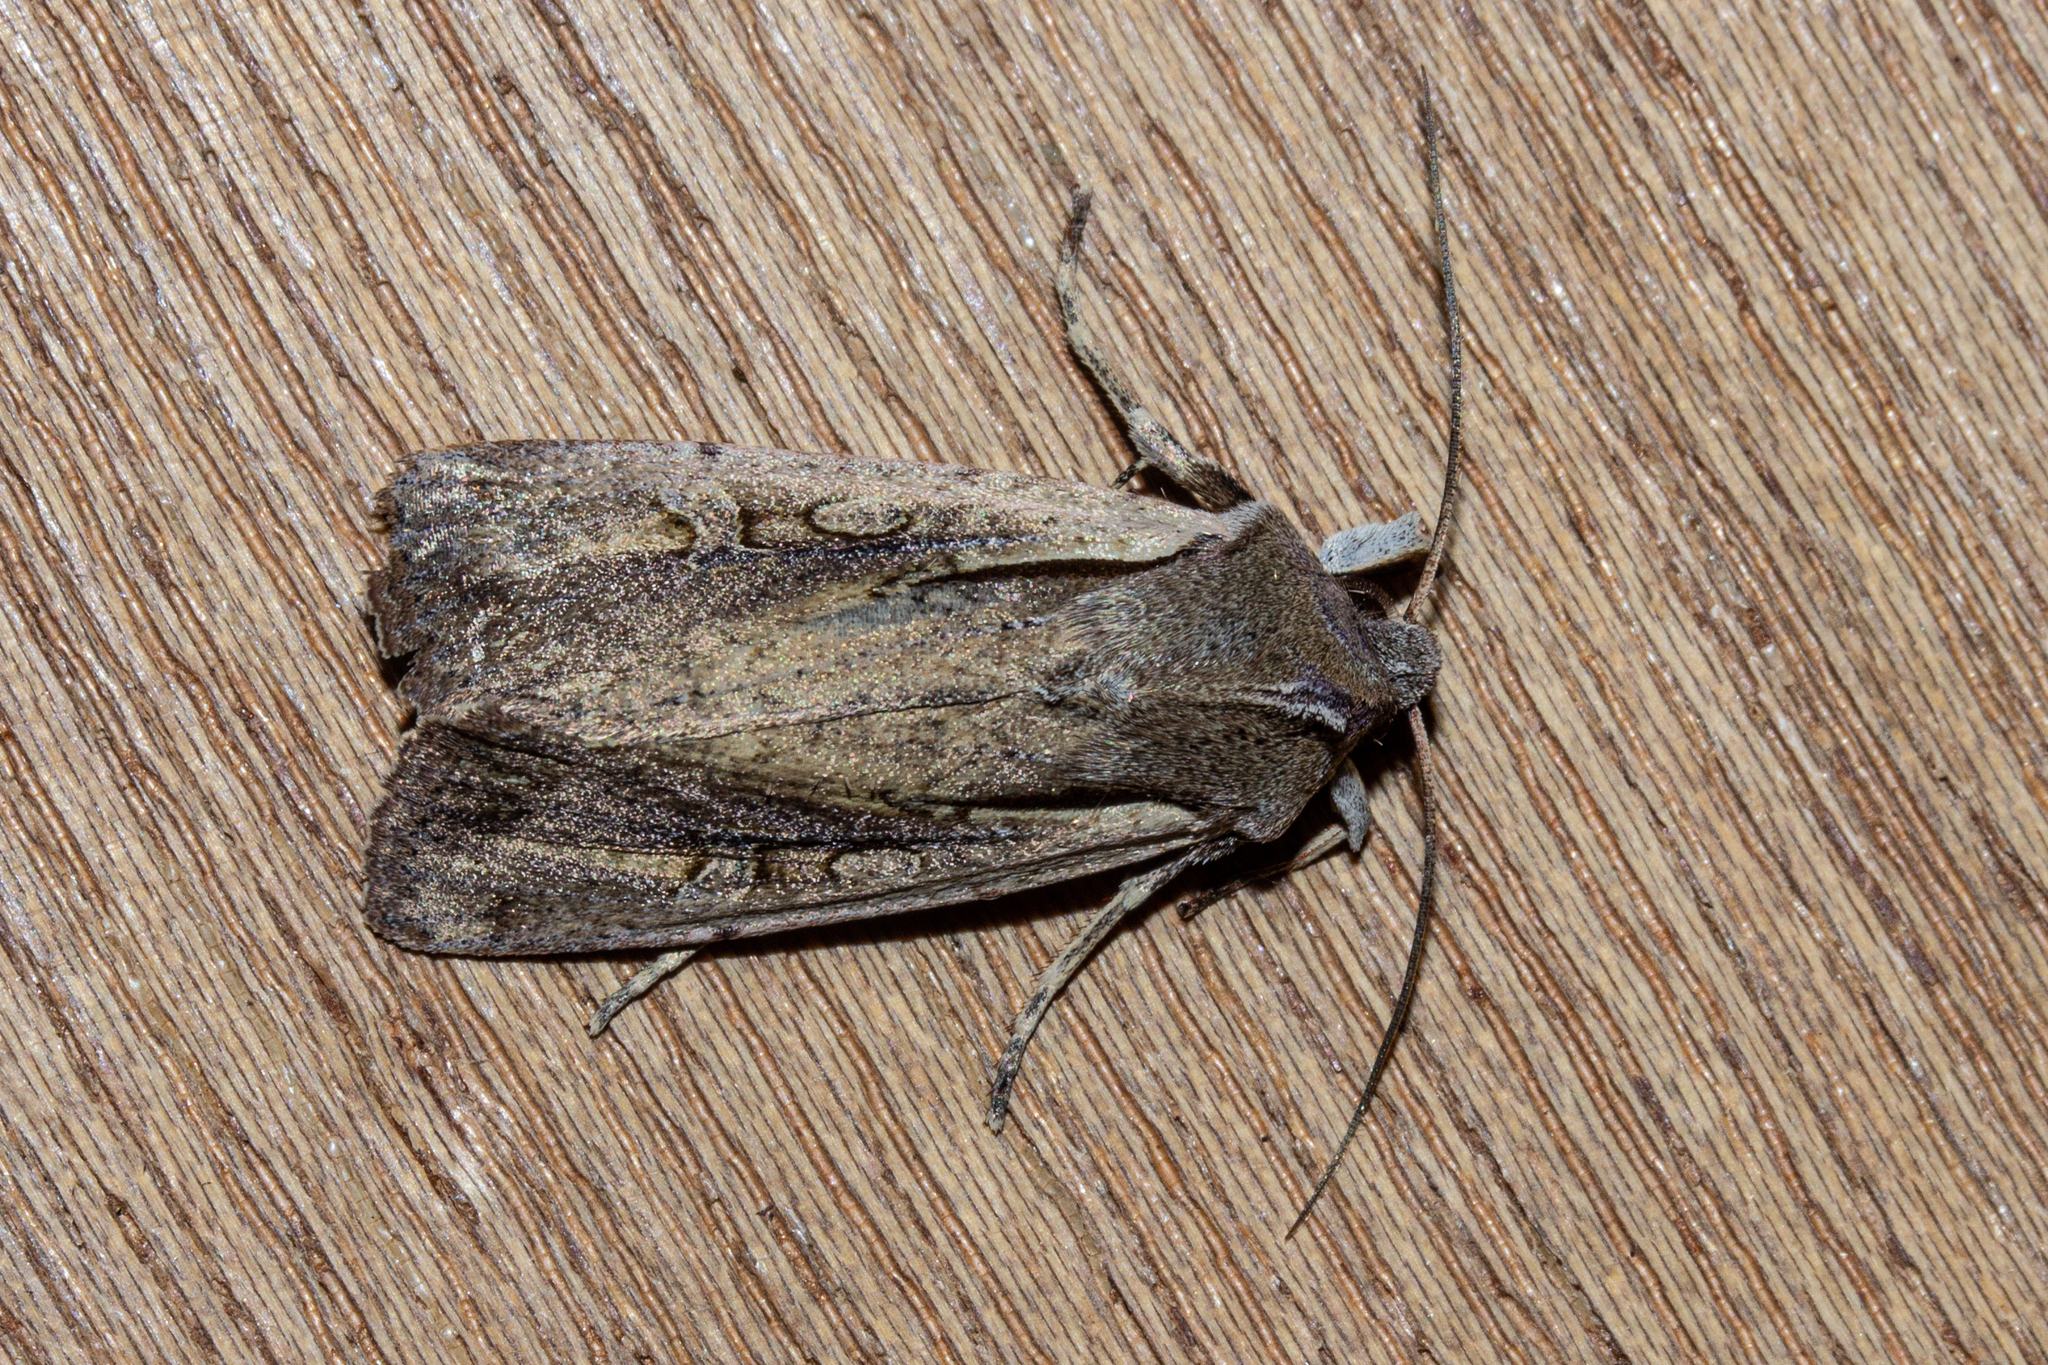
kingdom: Animalia
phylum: Arthropoda
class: Insecta
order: Lepidoptera
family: Noctuidae
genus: Ichneutica
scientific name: Ichneutica atristriga
